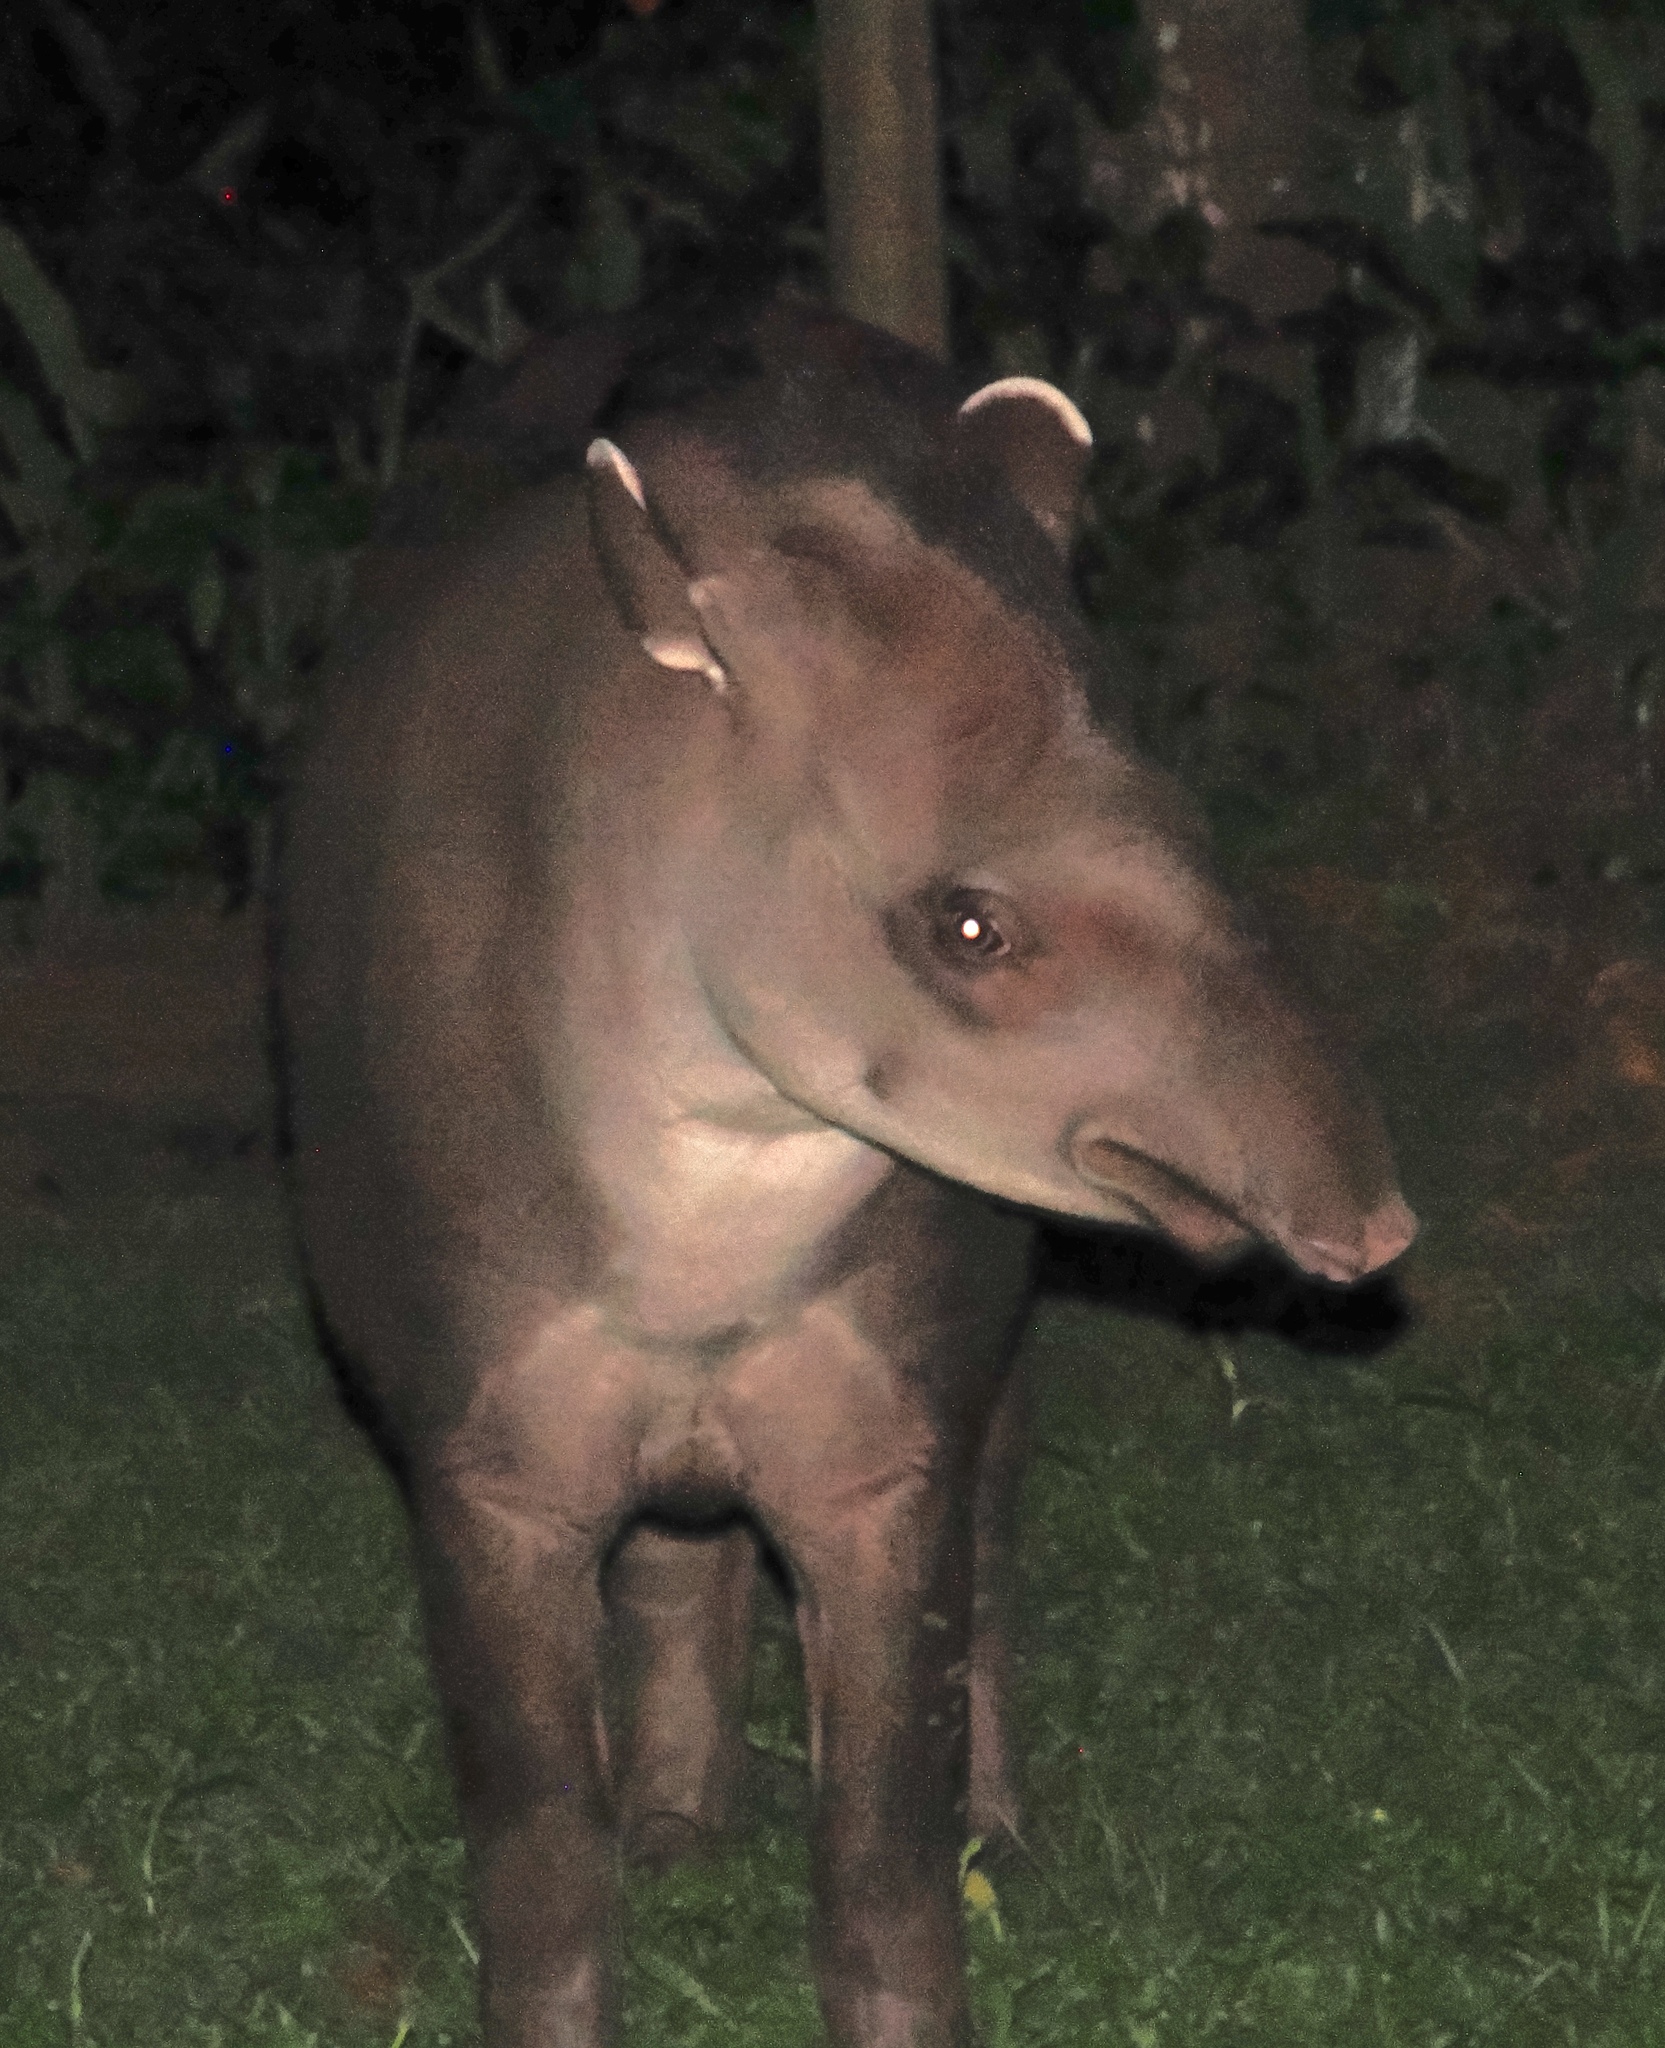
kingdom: Animalia
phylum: Chordata
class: Mammalia
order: Perissodactyla
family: Tapiridae
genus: Tapirus
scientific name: Tapirus terrestris
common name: Brazilian tapir
